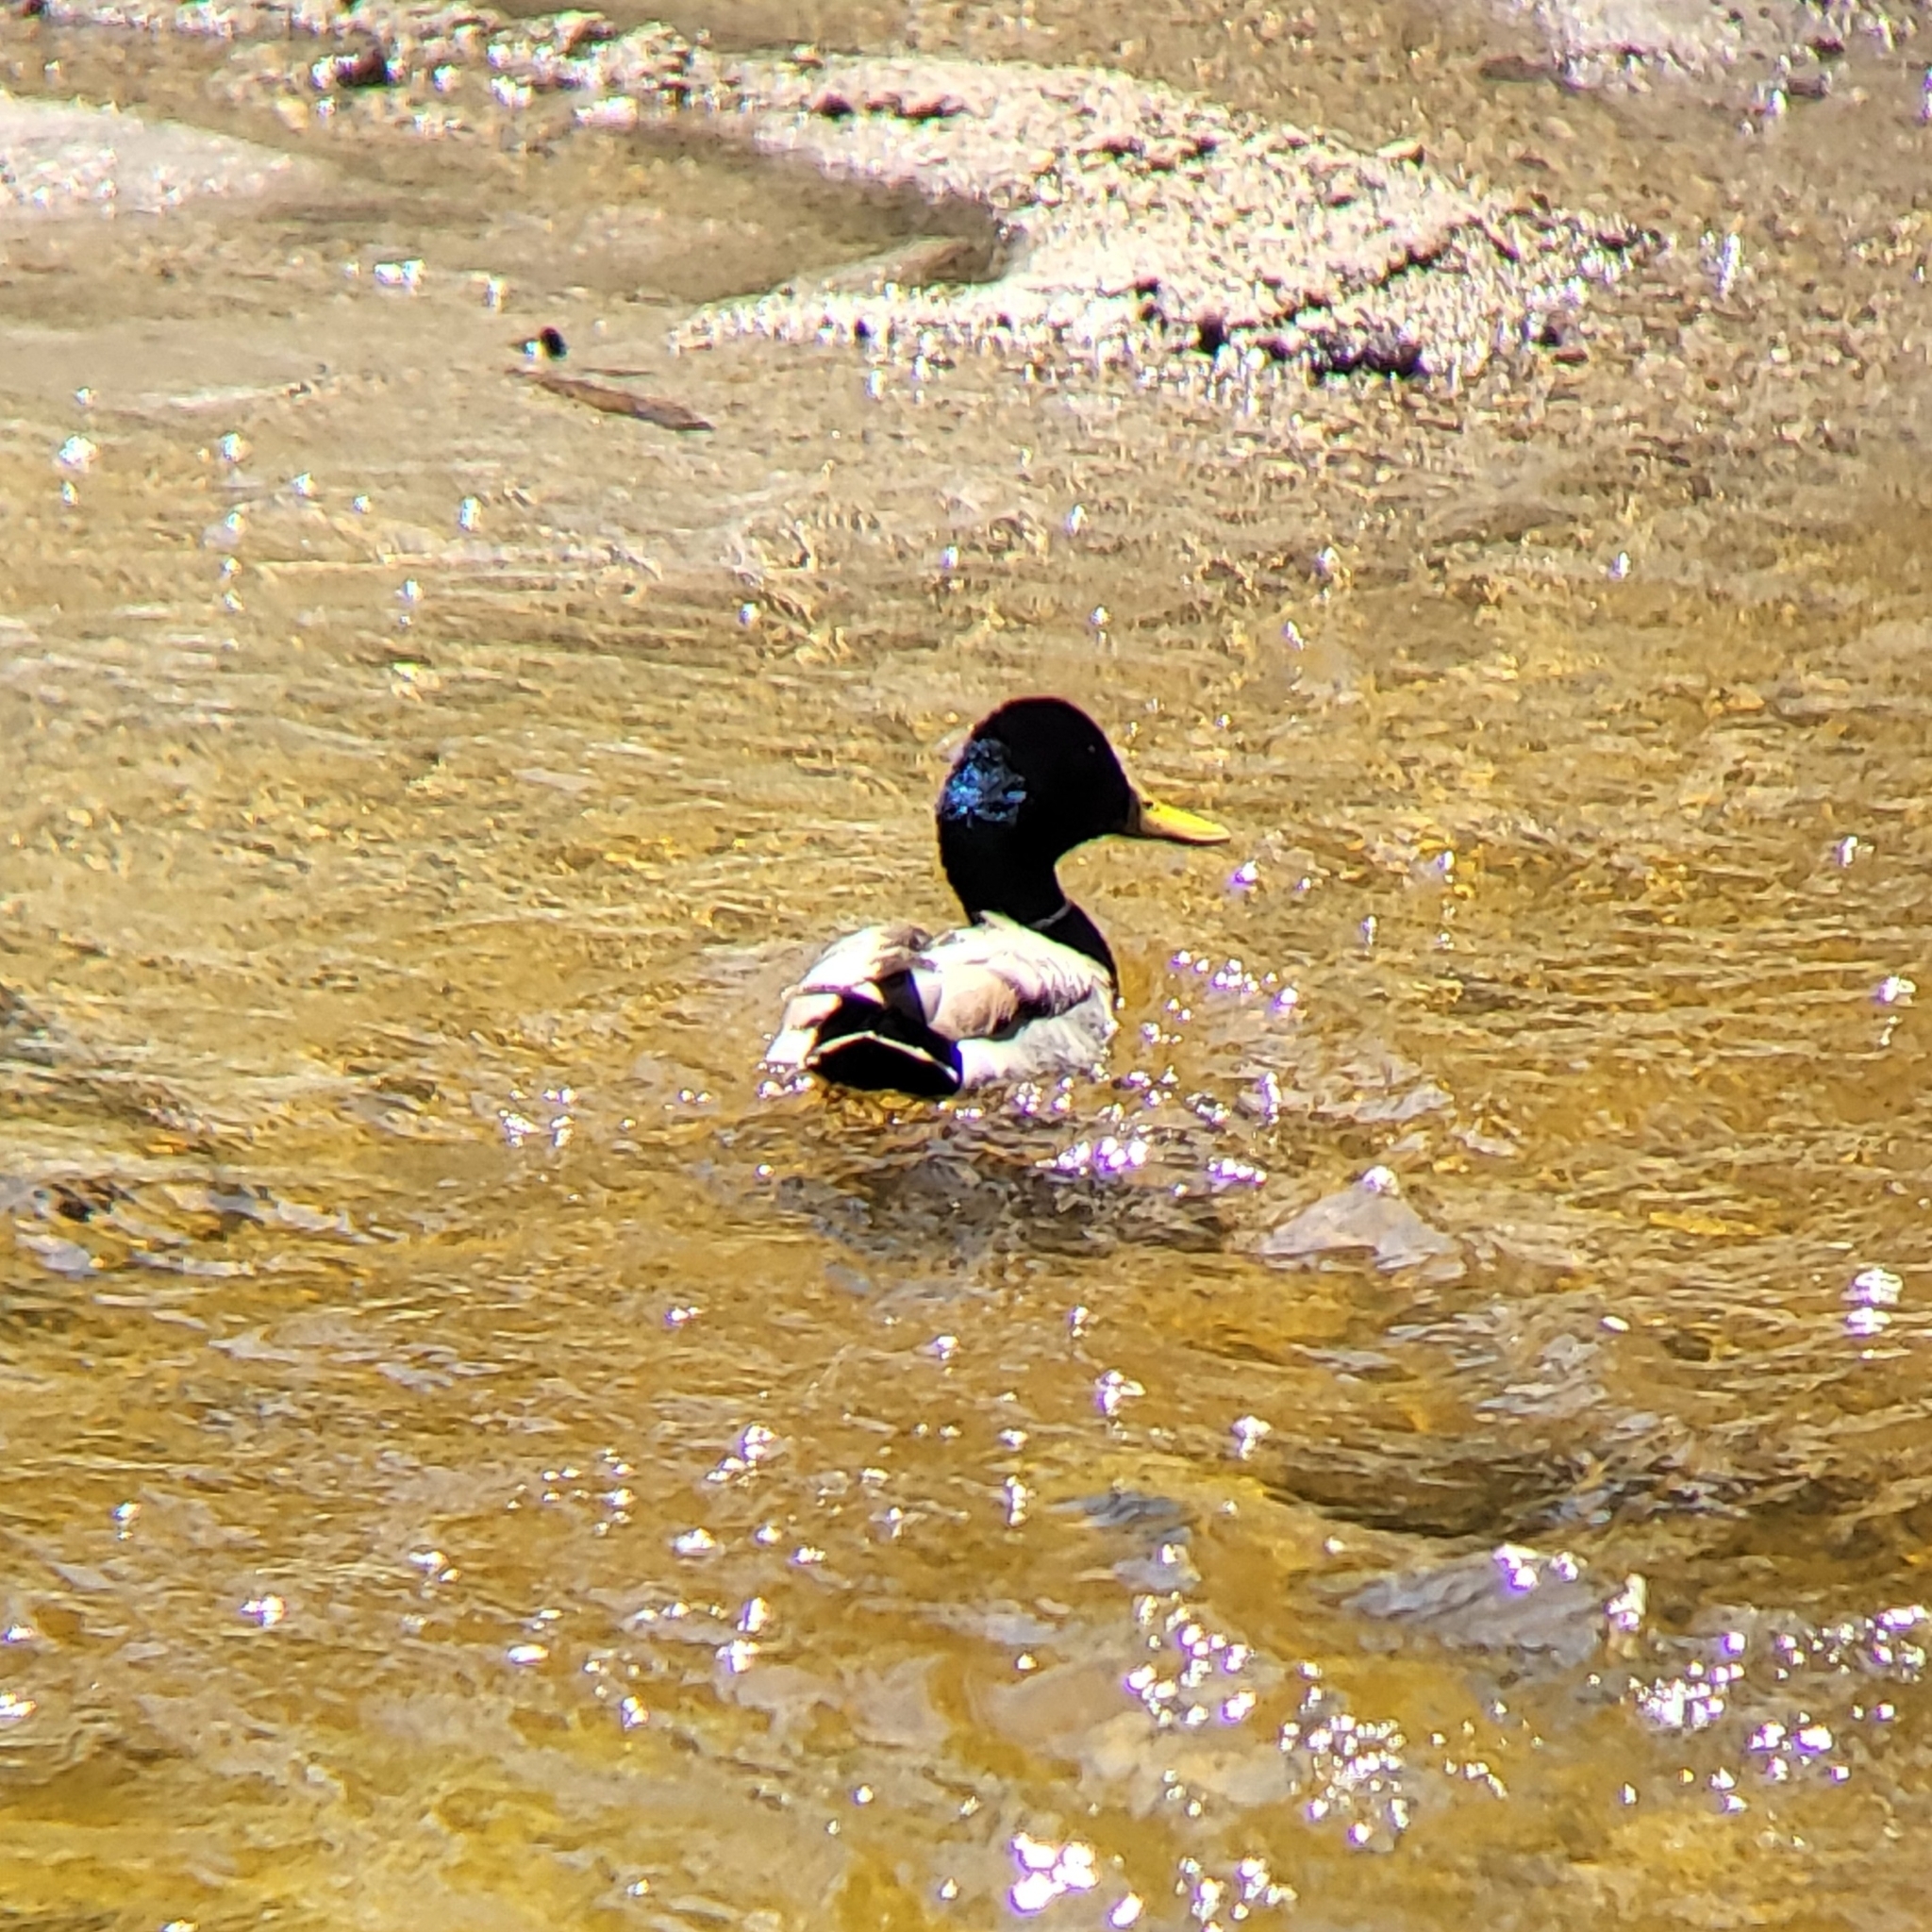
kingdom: Animalia
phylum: Chordata
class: Aves
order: Anseriformes
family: Anatidae
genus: Anas
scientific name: Anas platyrhynchos
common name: Mallard
